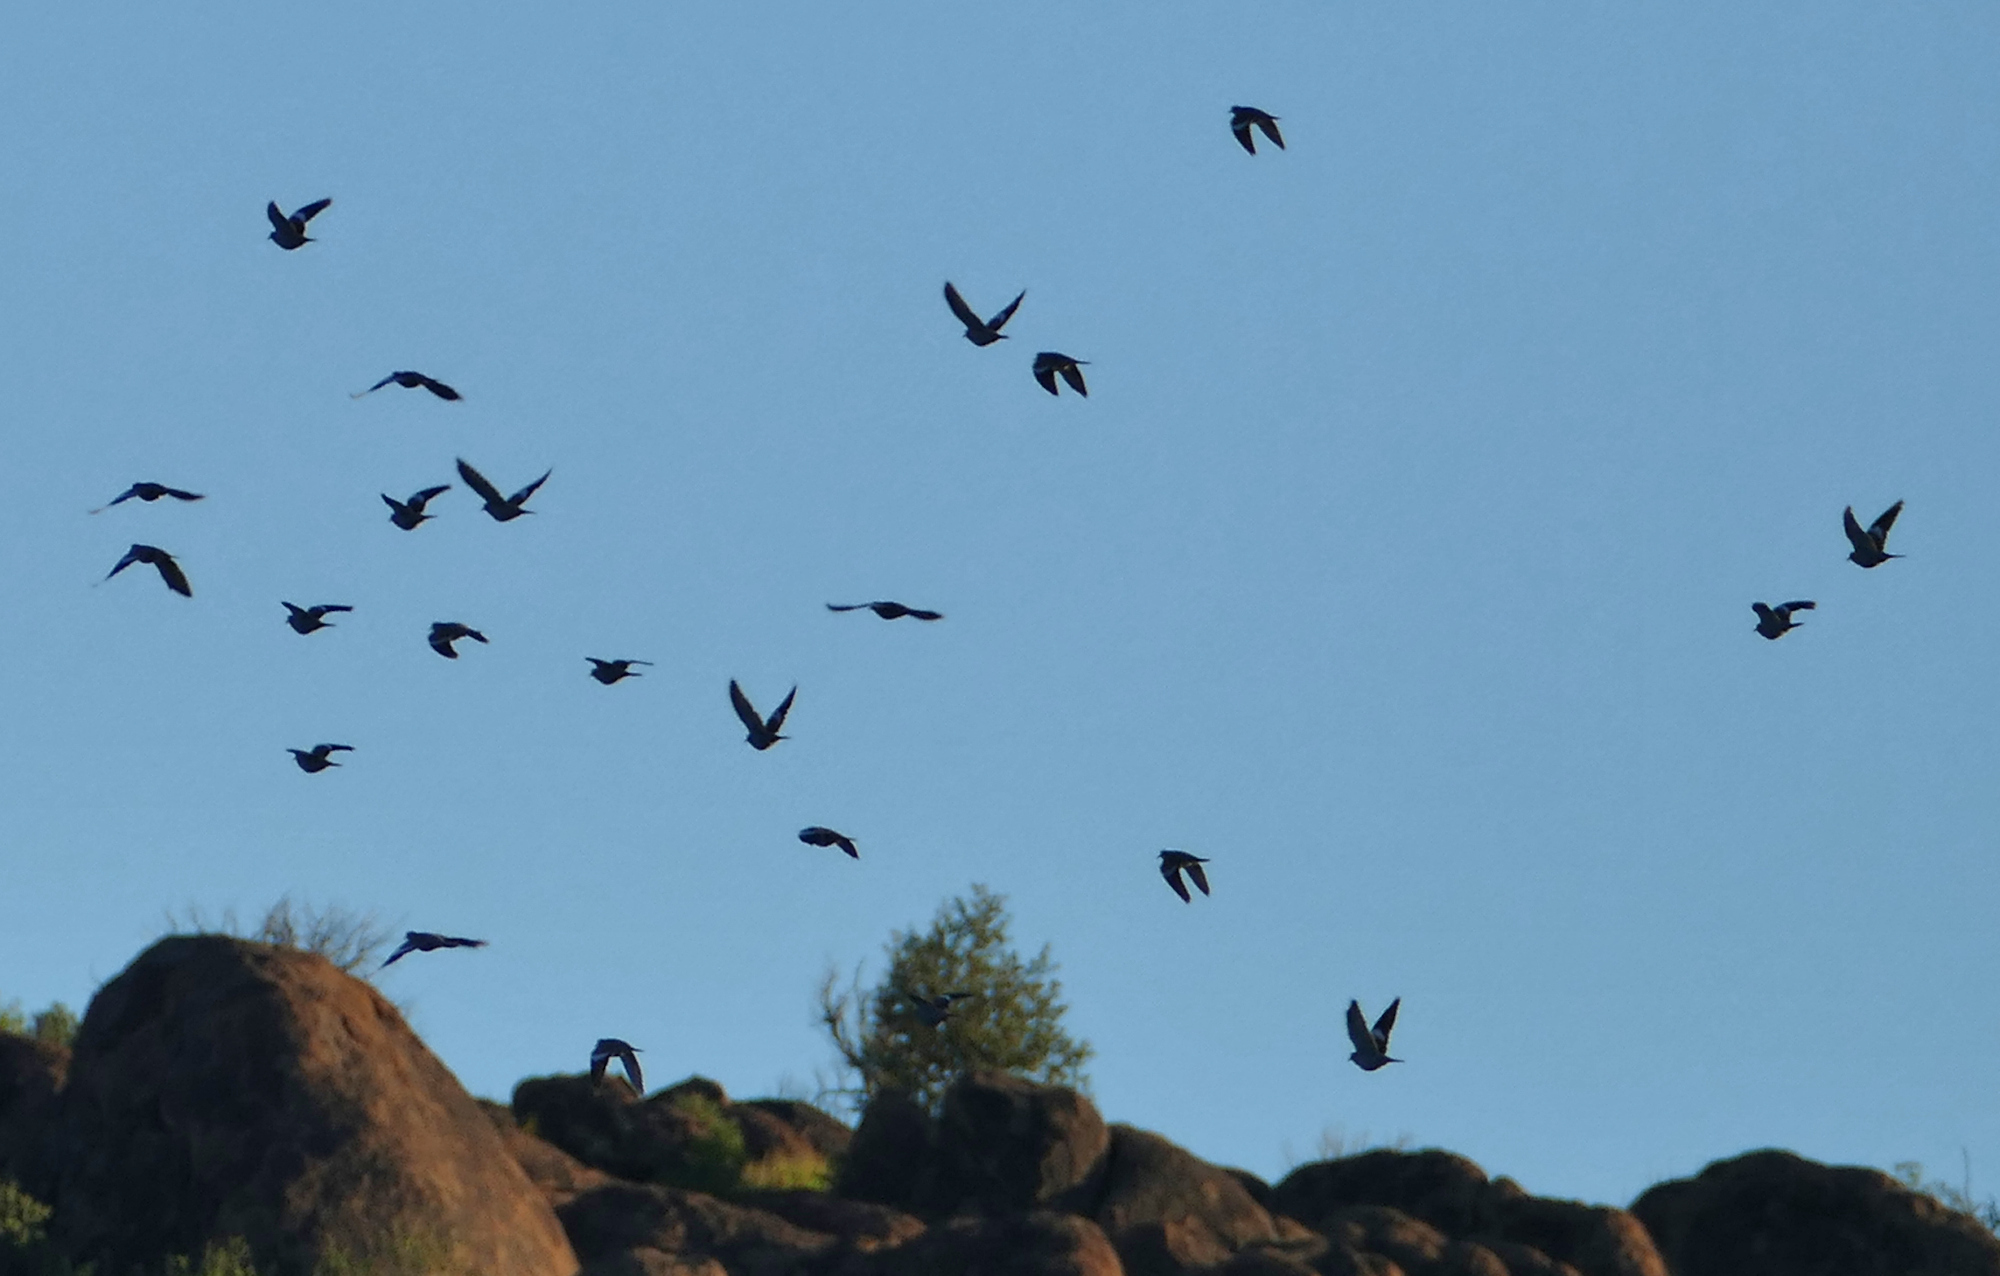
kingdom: Animalia
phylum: Chordata
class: Aves
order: Columbiformes
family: Columbidae
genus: Zenaida
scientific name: Zenaida asiatica
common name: White-winged dove
